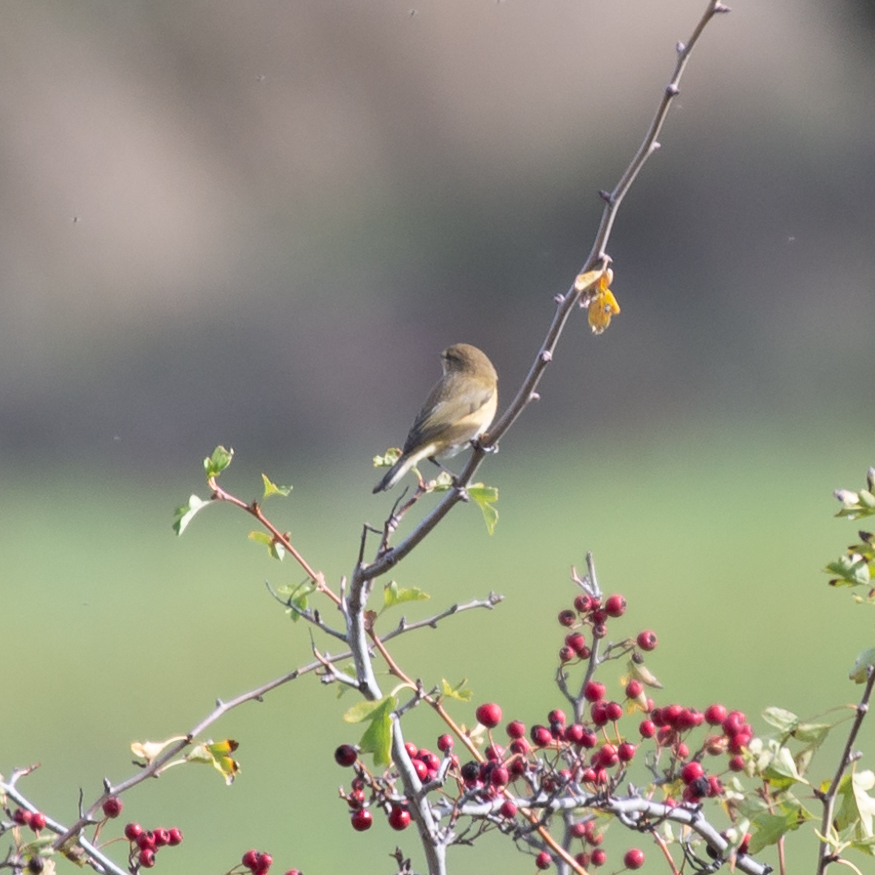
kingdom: Animalia
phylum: Chordata
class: Aves
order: Passeriformes
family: Phylloscopidae
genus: Phylloscopus
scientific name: Phylloscopus collybita
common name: Common chiffchaff
